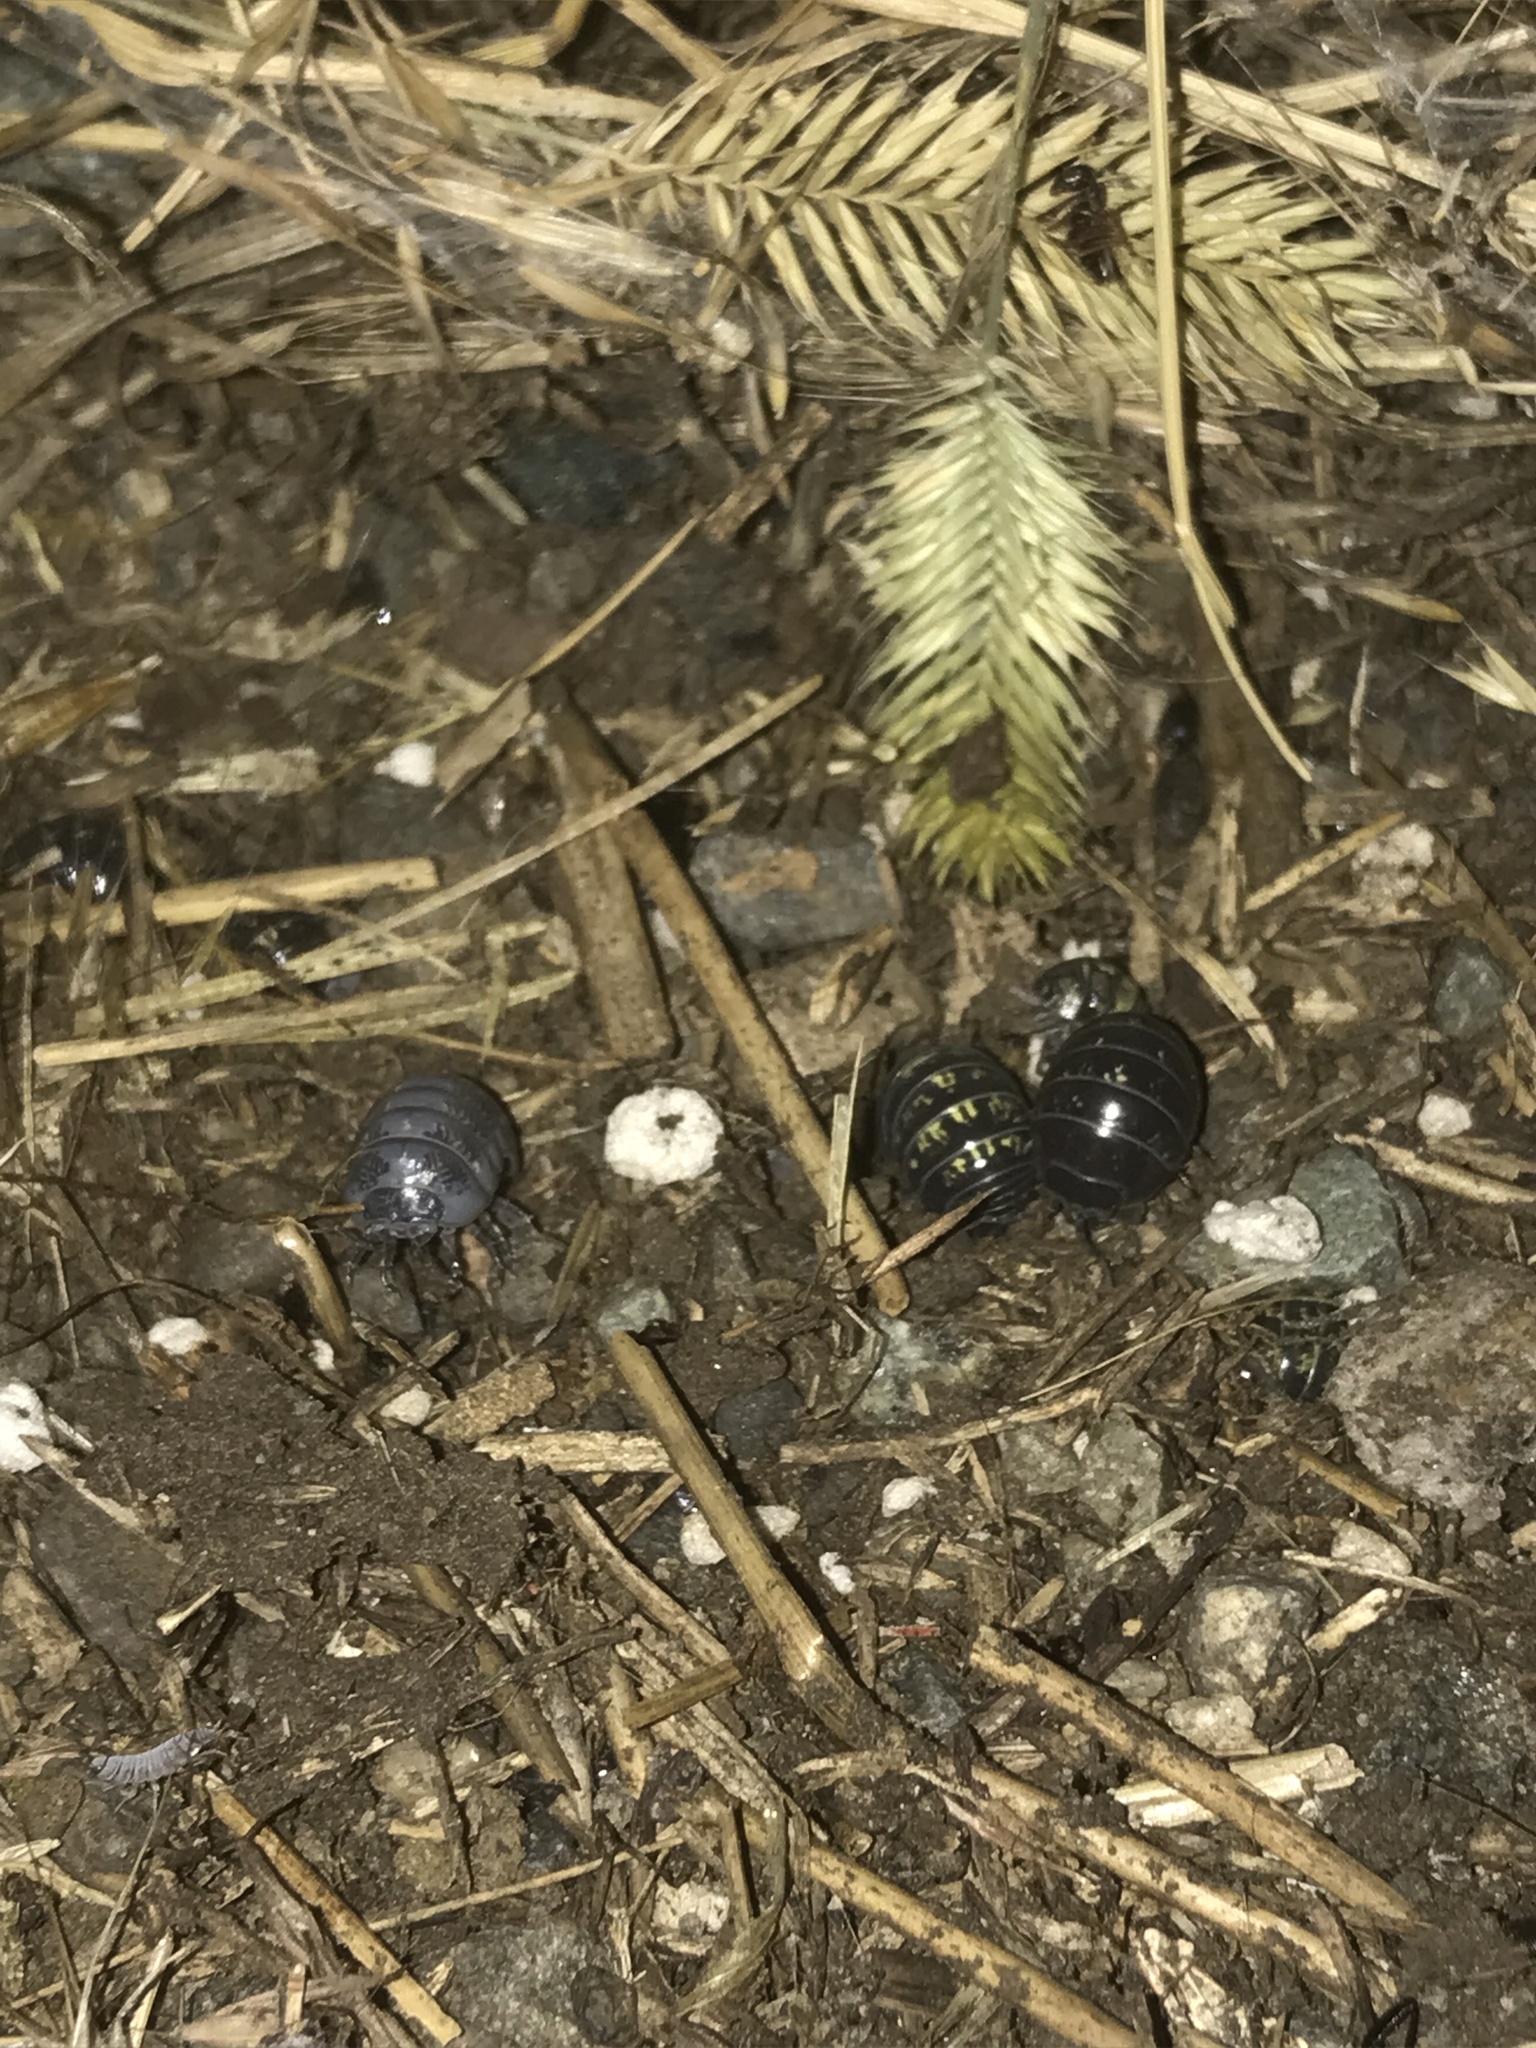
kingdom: Animalia
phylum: Arthropoda
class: Malacostraca
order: Isopoda
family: Armadillidiidae
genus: Armadillidium
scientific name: Armadillidium vulgare
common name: Common pill woodlouse
